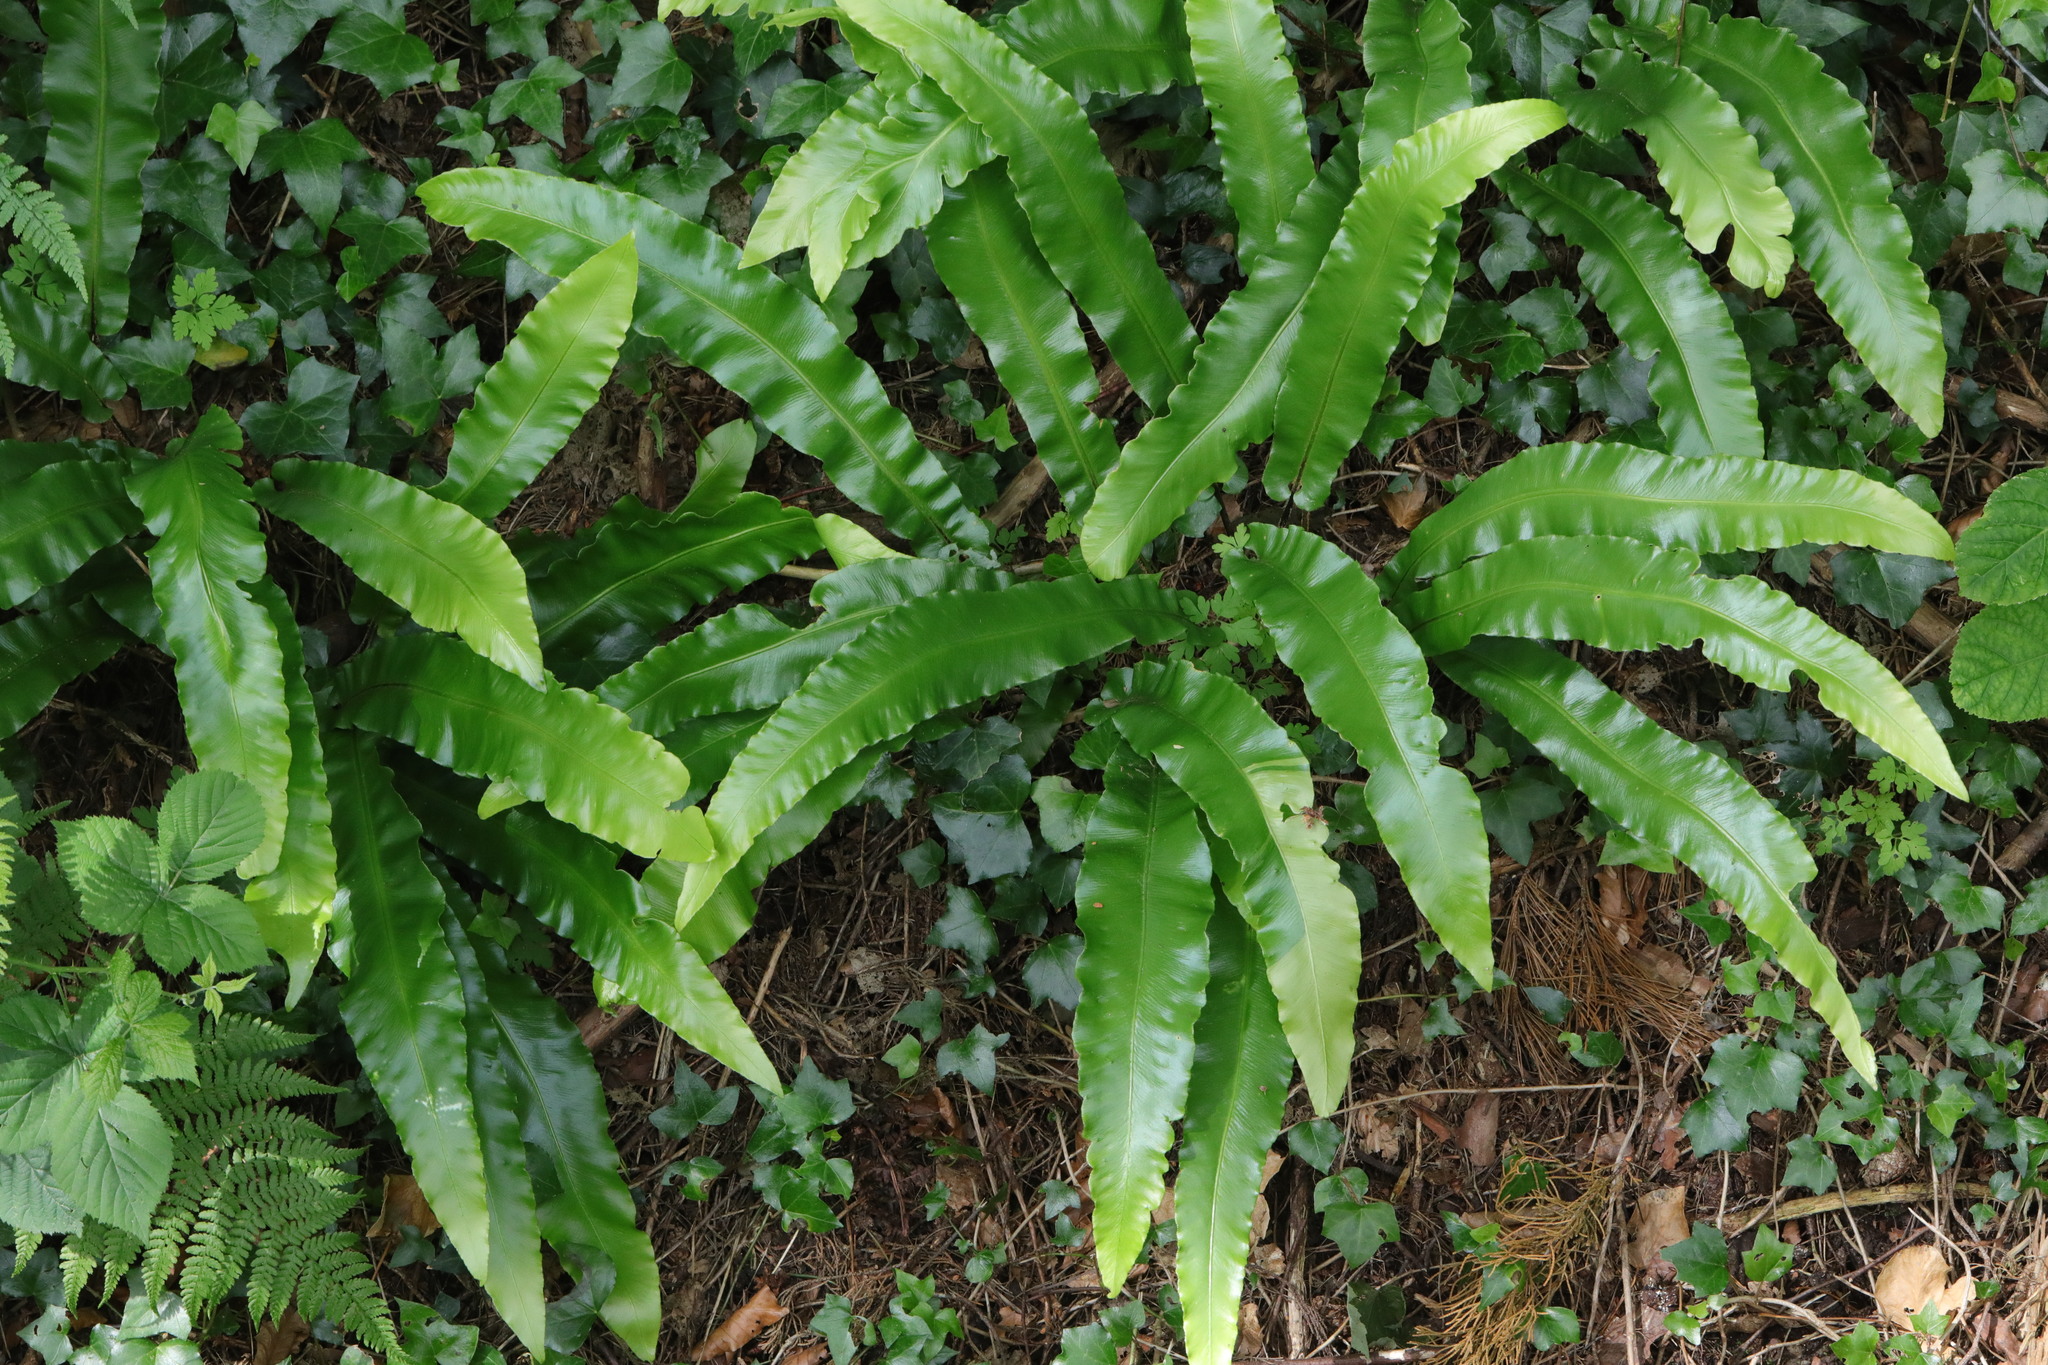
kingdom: Plantae
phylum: Tracheophyta
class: Polypodiopsida
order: Polypodiales
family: Aspleniaceae
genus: Asplenium
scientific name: Asplenium scolopendrium
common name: Hart's-tongue fern
